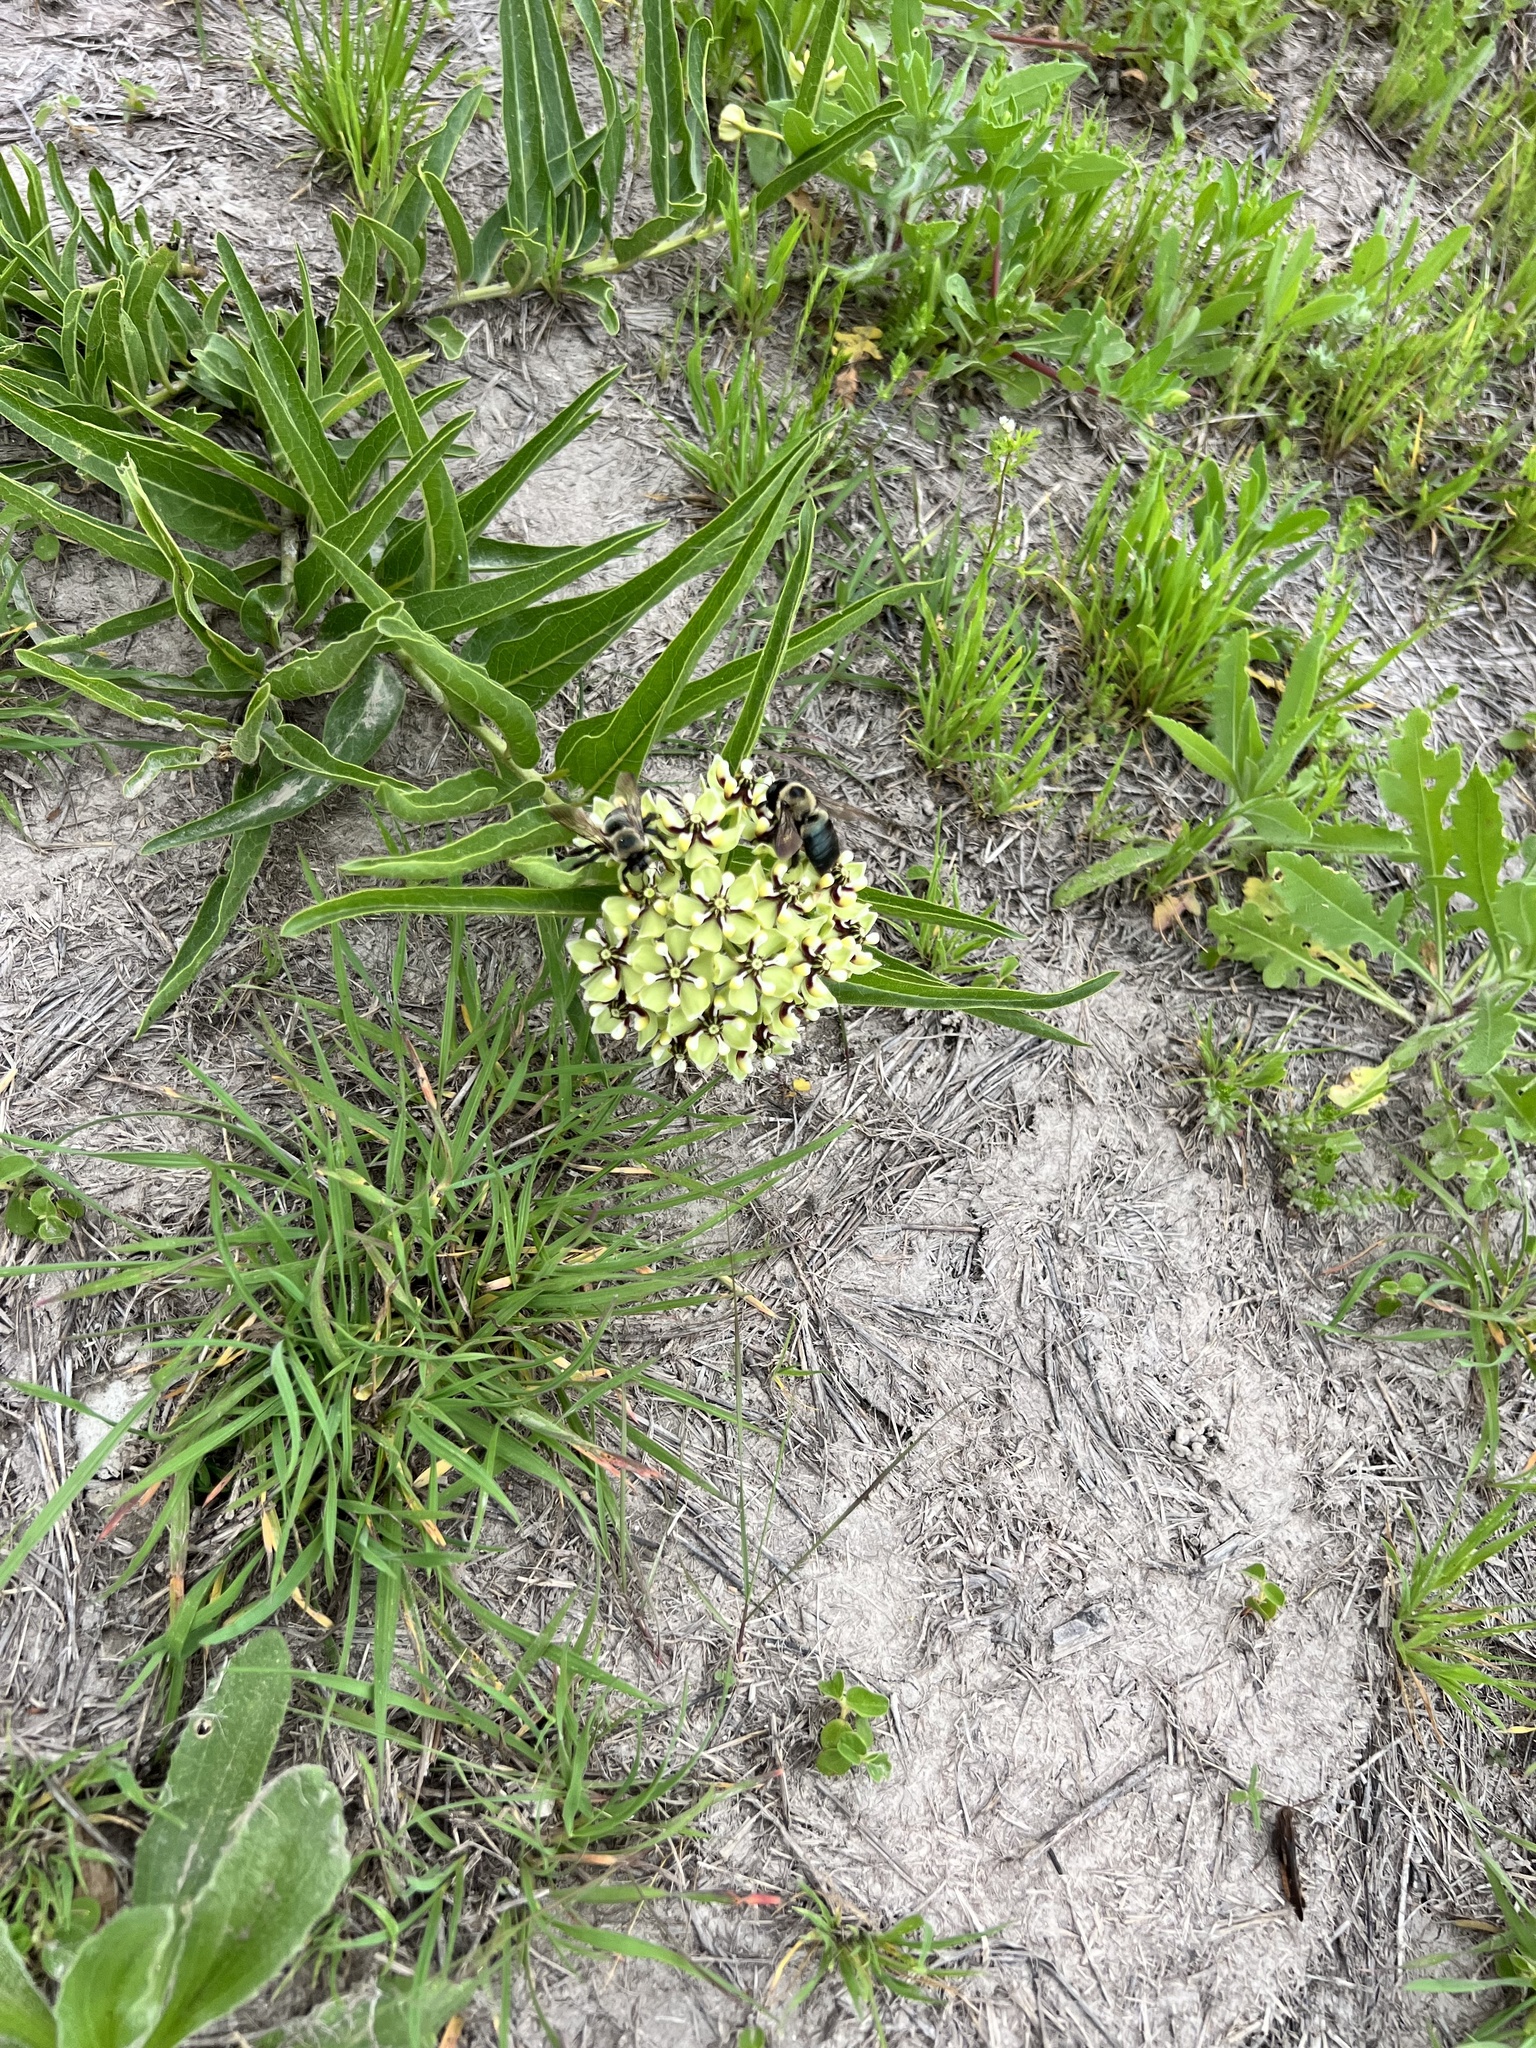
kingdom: Animalia
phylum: Arthropoda
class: Insecta
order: Hymenoptera
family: Apidae
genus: Xylocopa
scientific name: Xylocopa virginica
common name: Carpenter bee
